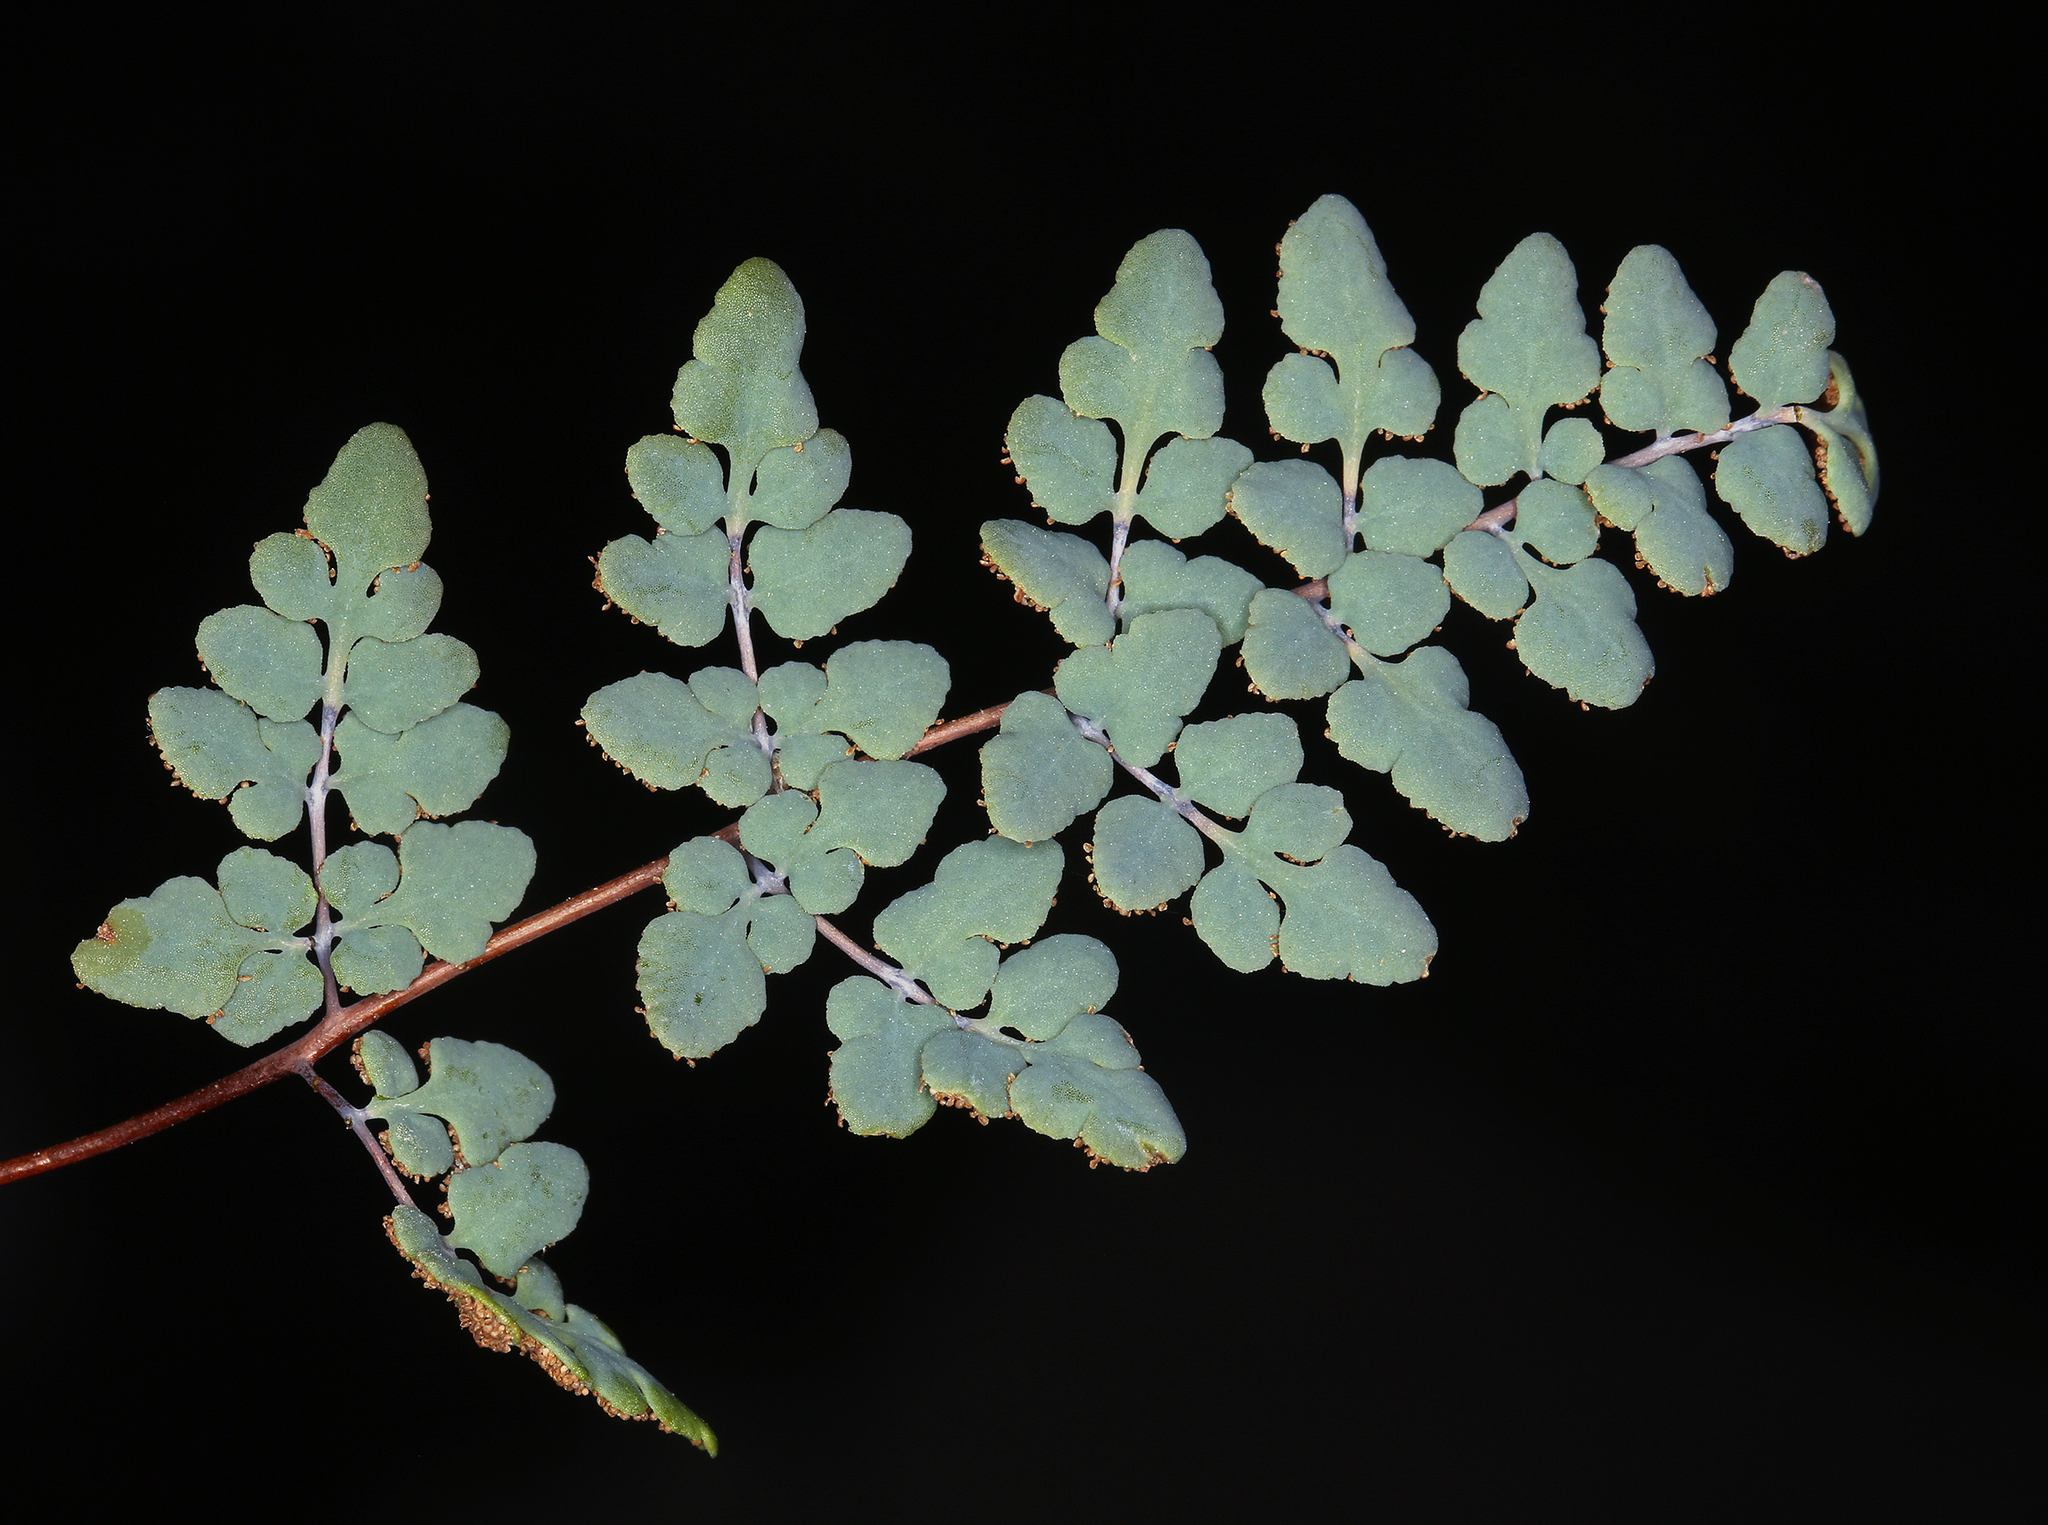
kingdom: Plantae
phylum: Tracheophyta
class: Polypodiopsida
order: Polypodiales
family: Pteridaceae
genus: Argyrochosma
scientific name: Argyrochosma jonesii
